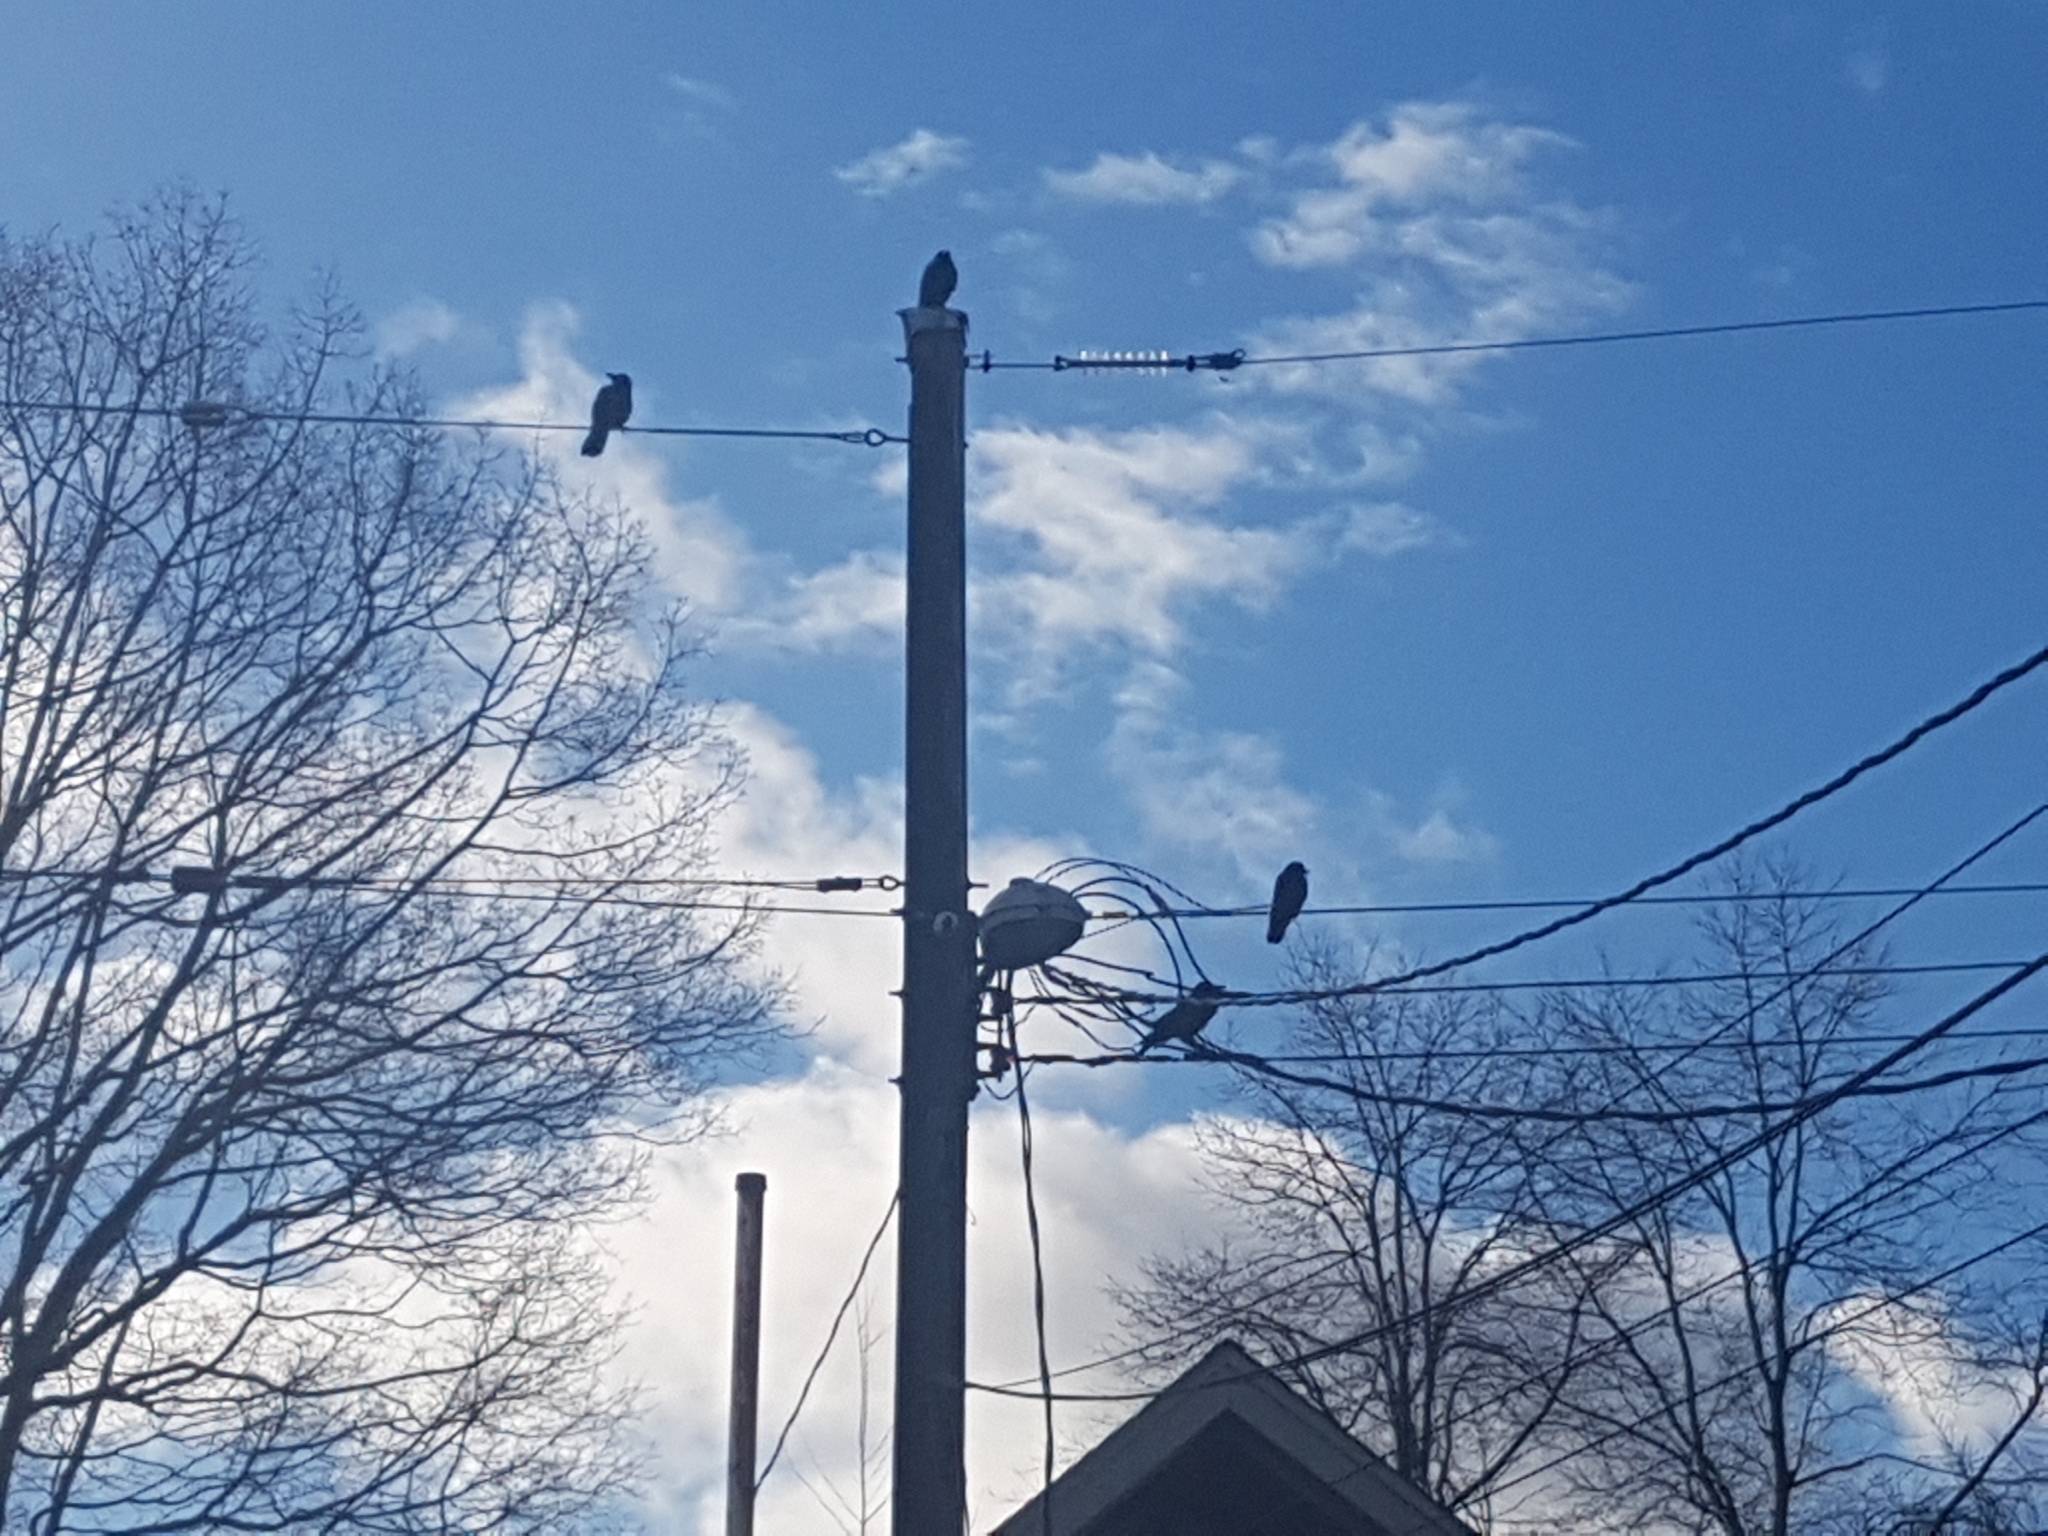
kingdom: Animalia
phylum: Chordata
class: Aves
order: Passeriformes
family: Corvidae
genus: Corvus
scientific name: Corvus brachyrhynchos
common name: American crow
